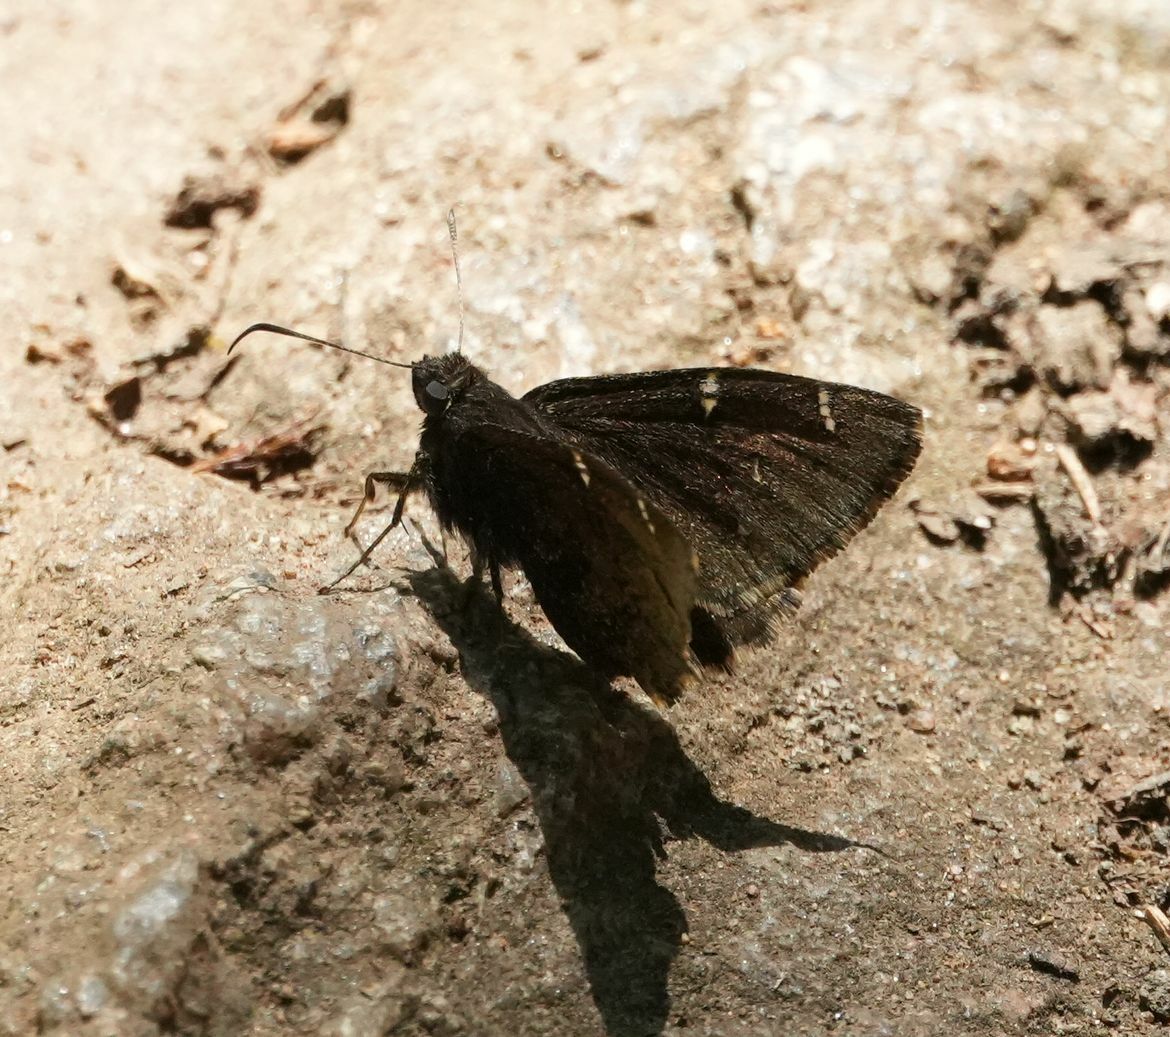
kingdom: Animalia
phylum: Arthropoda
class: Insecta
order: Lepidoptera
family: Hesperiidae
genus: Thorybes
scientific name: Thorybes pylades
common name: Northern cloudywing
